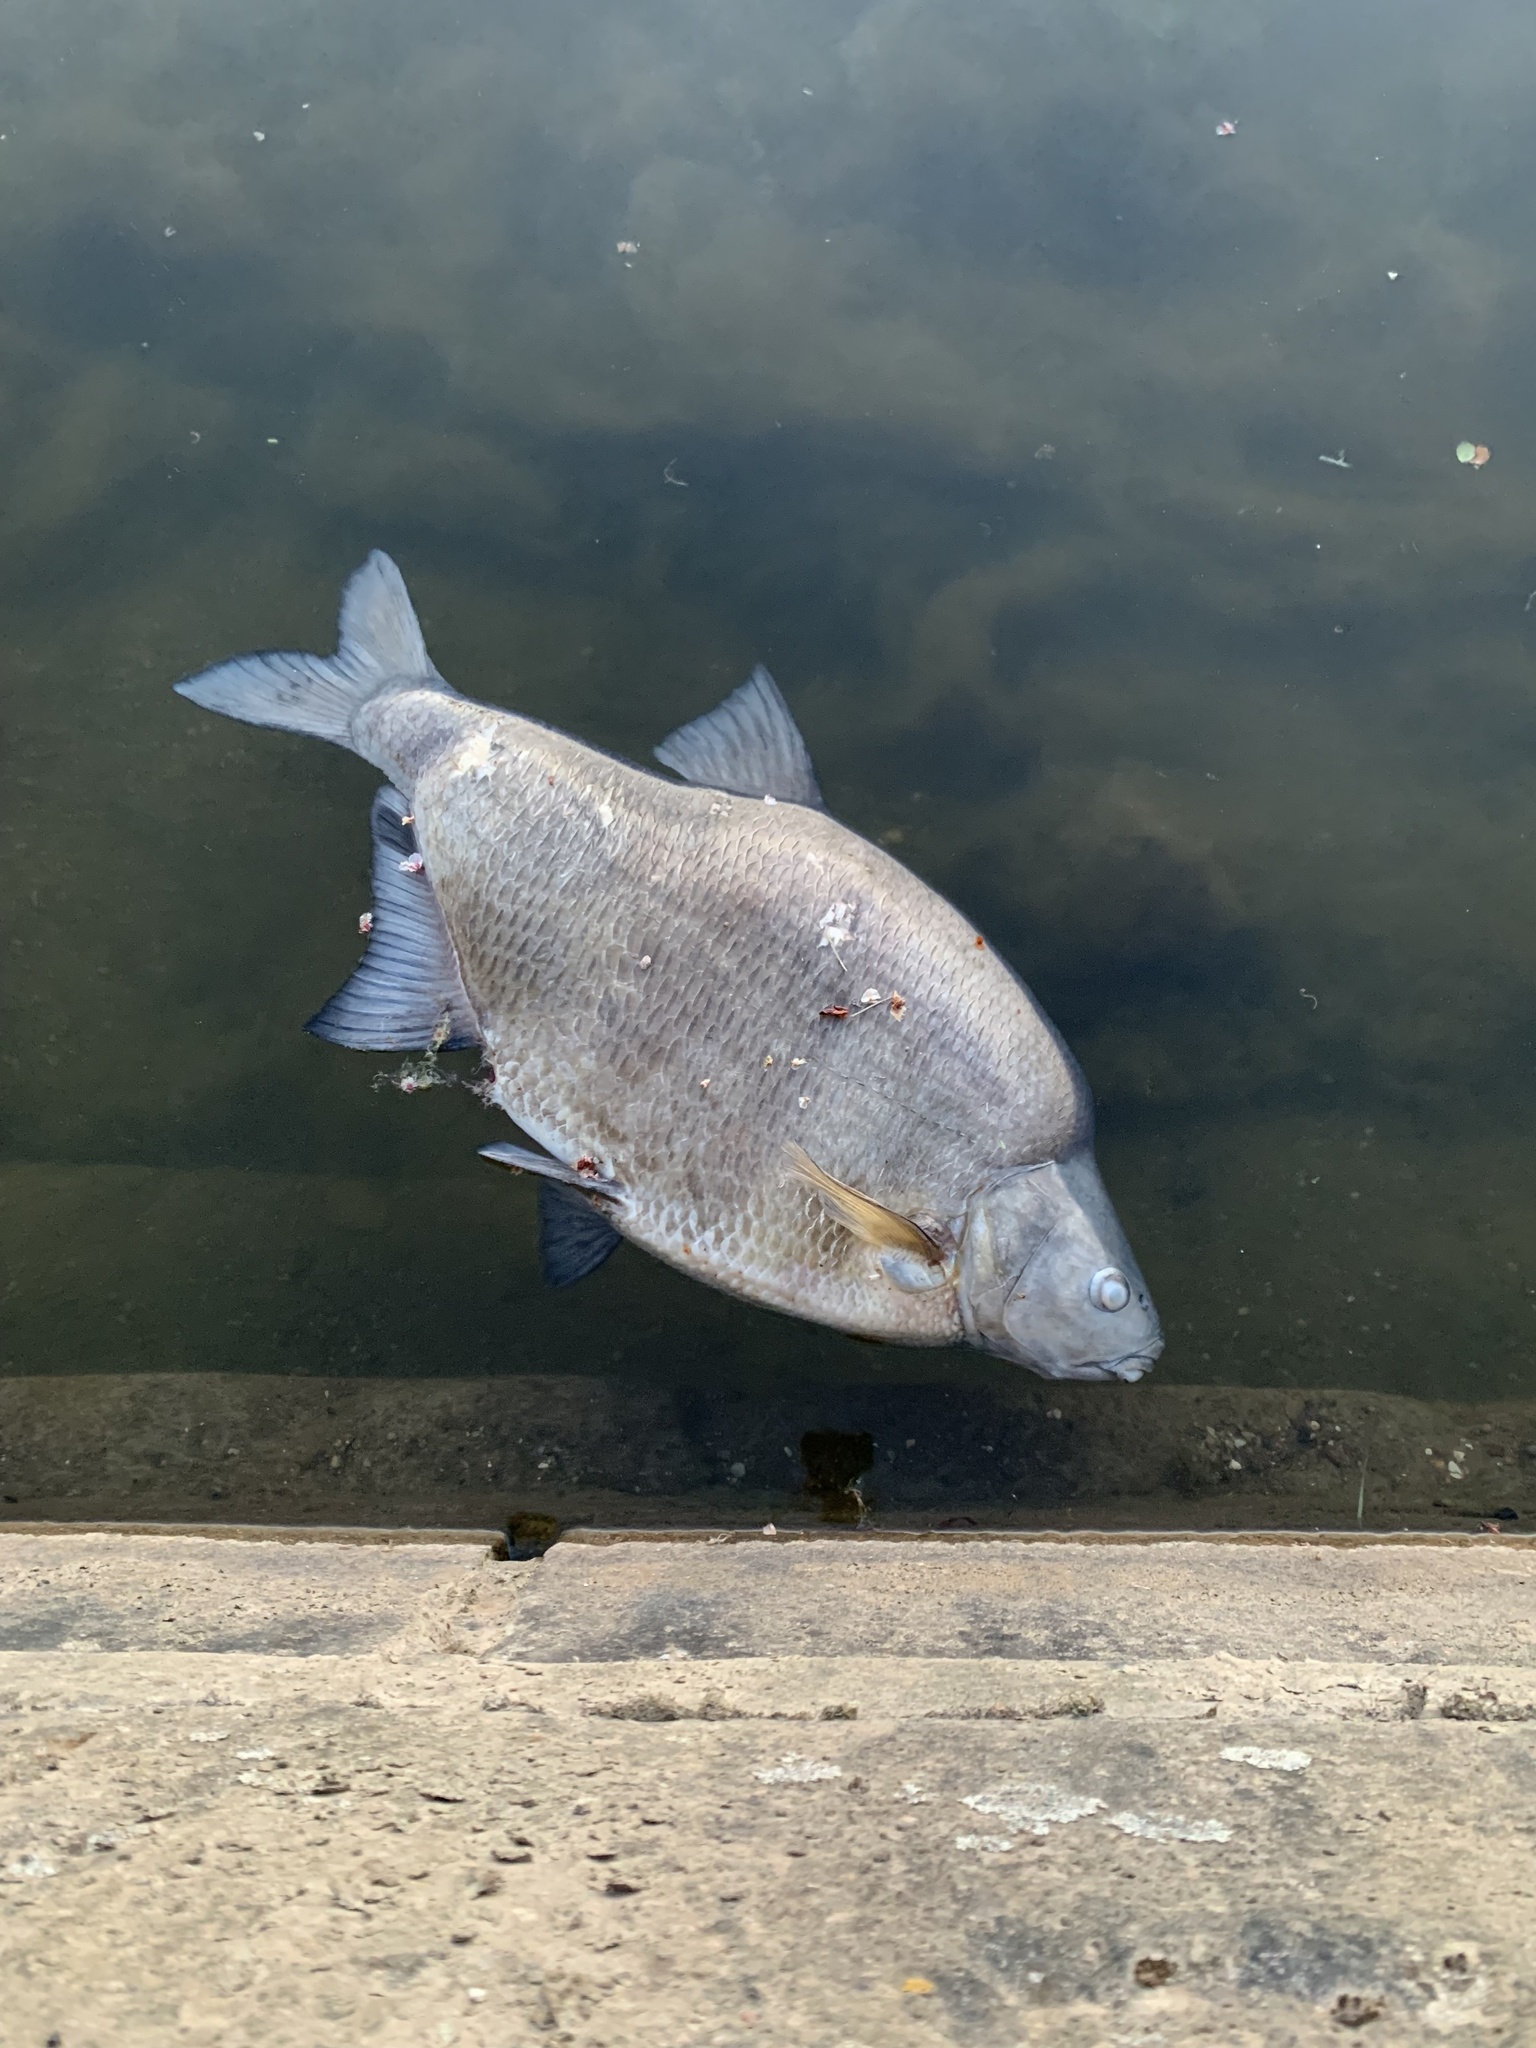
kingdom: Animalia
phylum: Chordata
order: Cypriniformes
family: Cyprinidae
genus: Abramis
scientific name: Abramis brama
